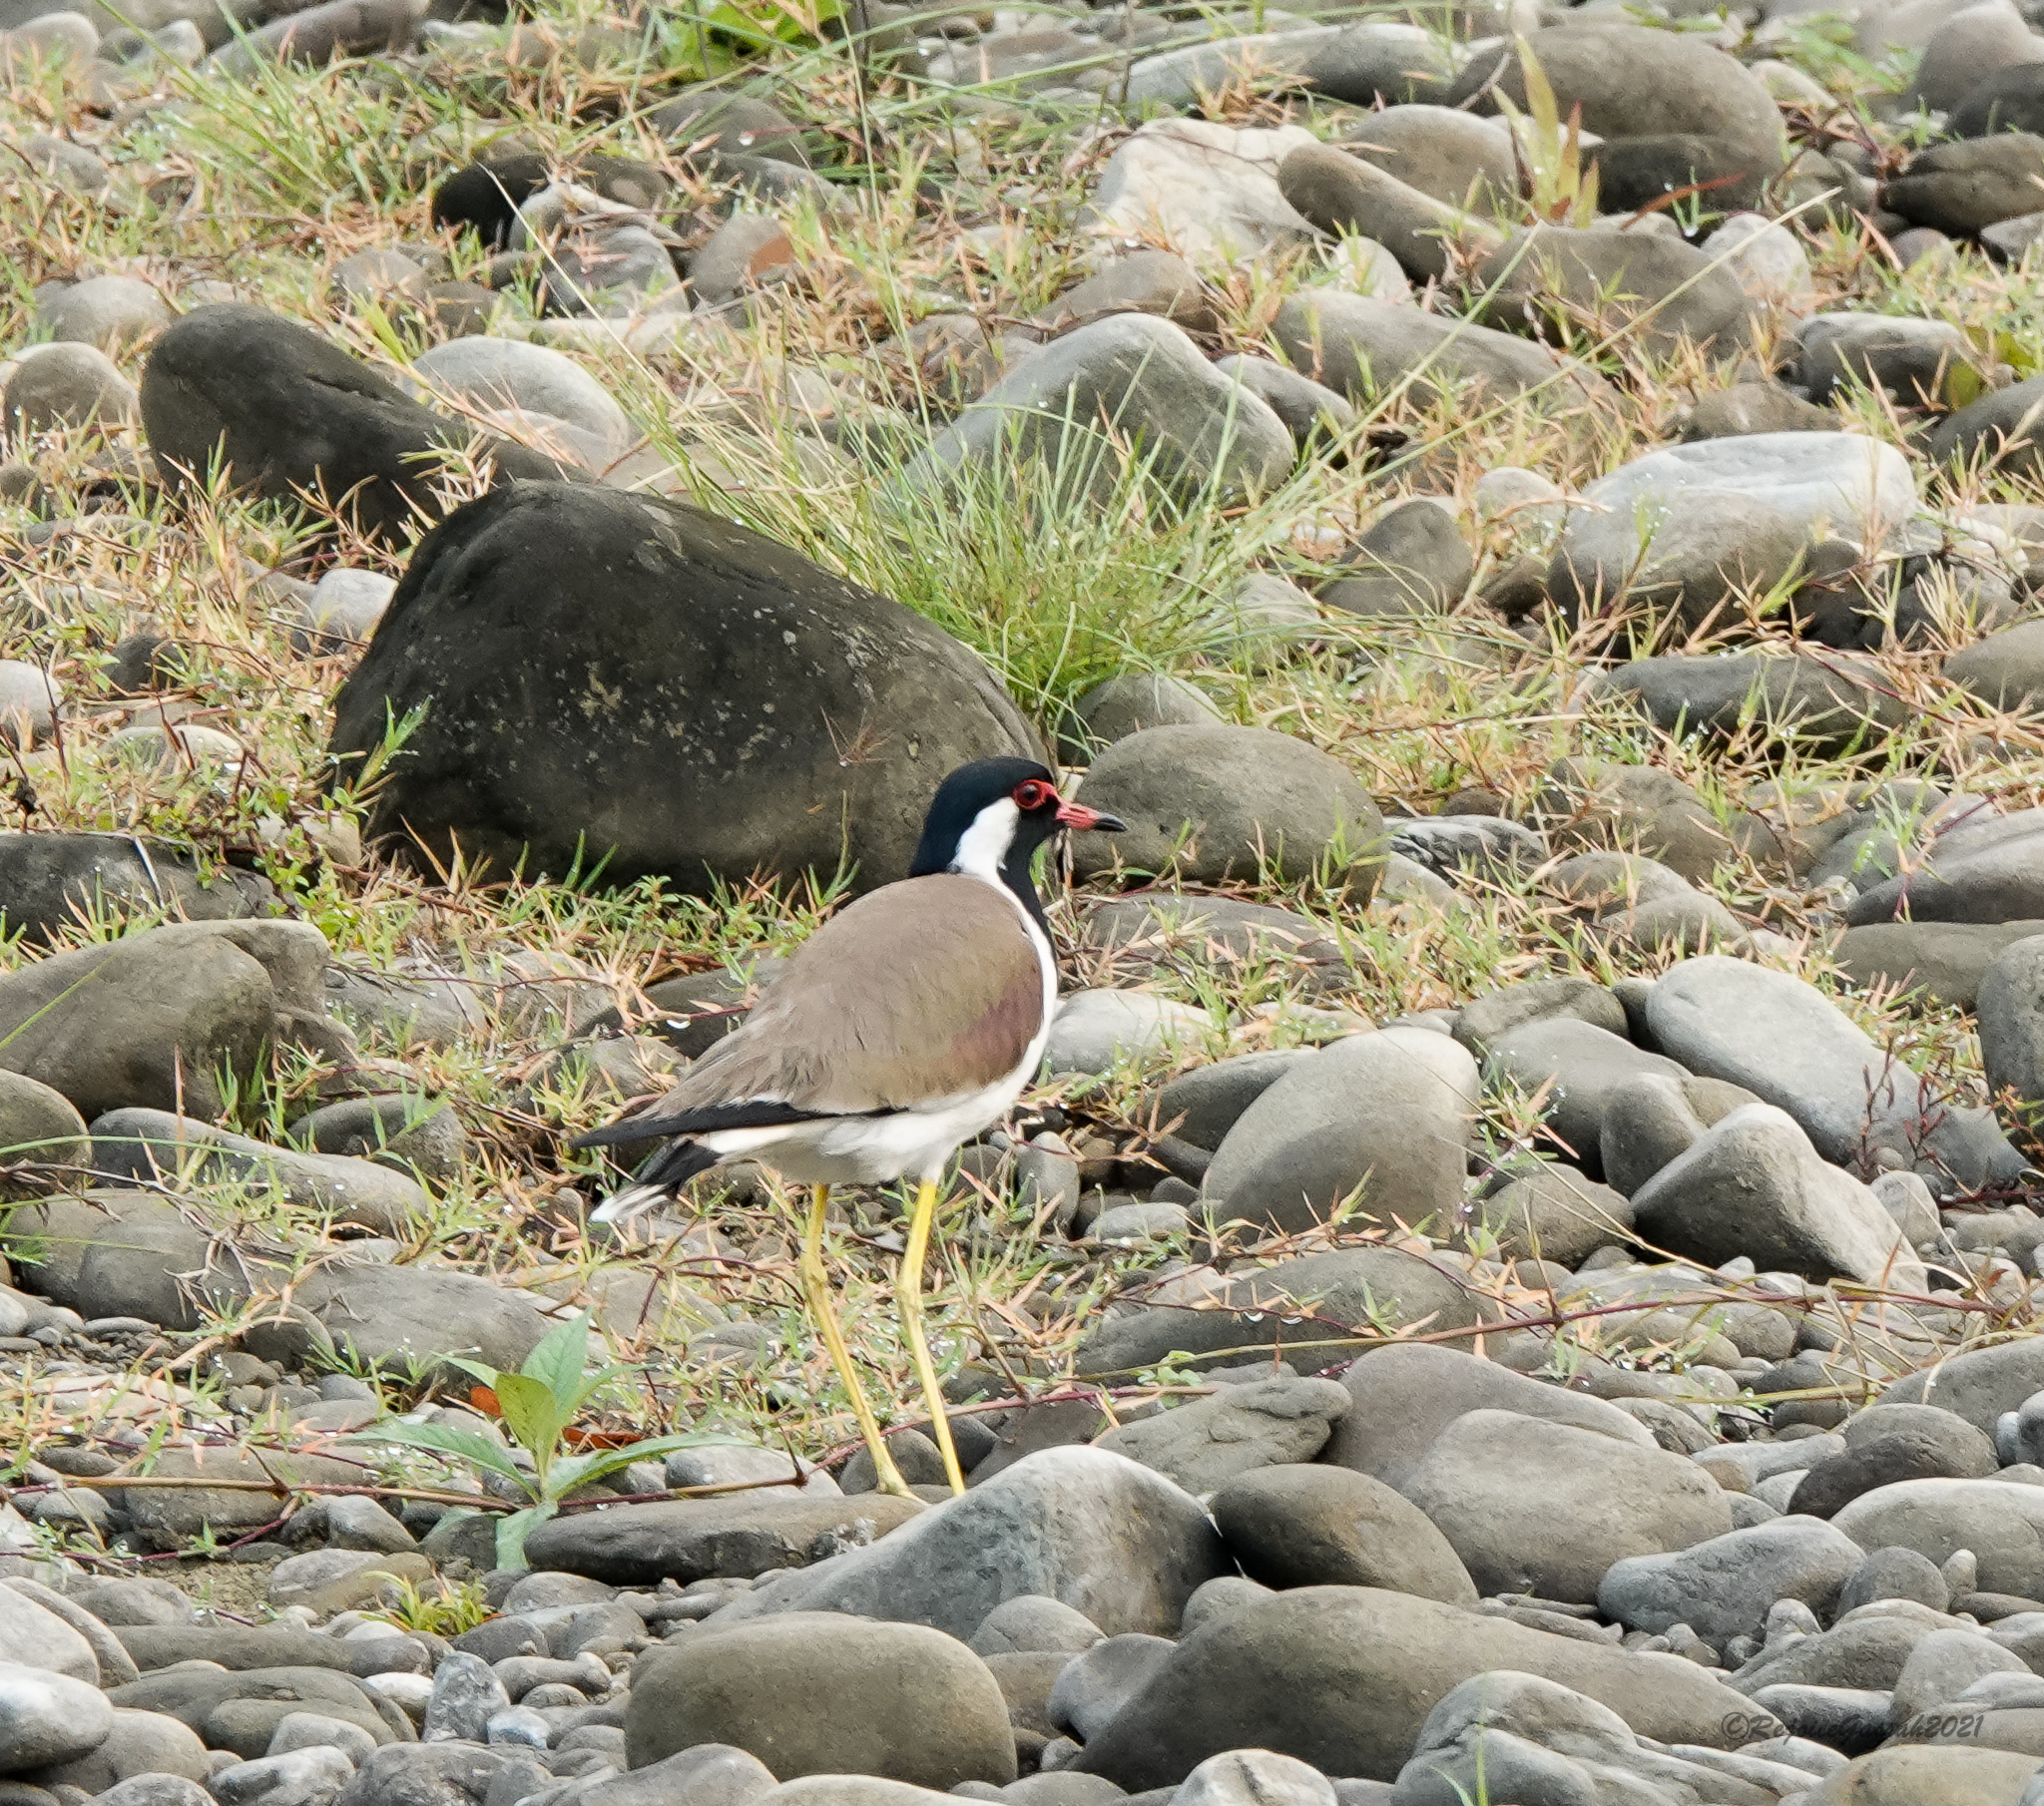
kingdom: Animalia
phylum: Chordata
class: Aves
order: Charadriiformes
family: Charadriidae
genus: Vanellus
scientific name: Vanellus indicus
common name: Red-wattled lapwing
